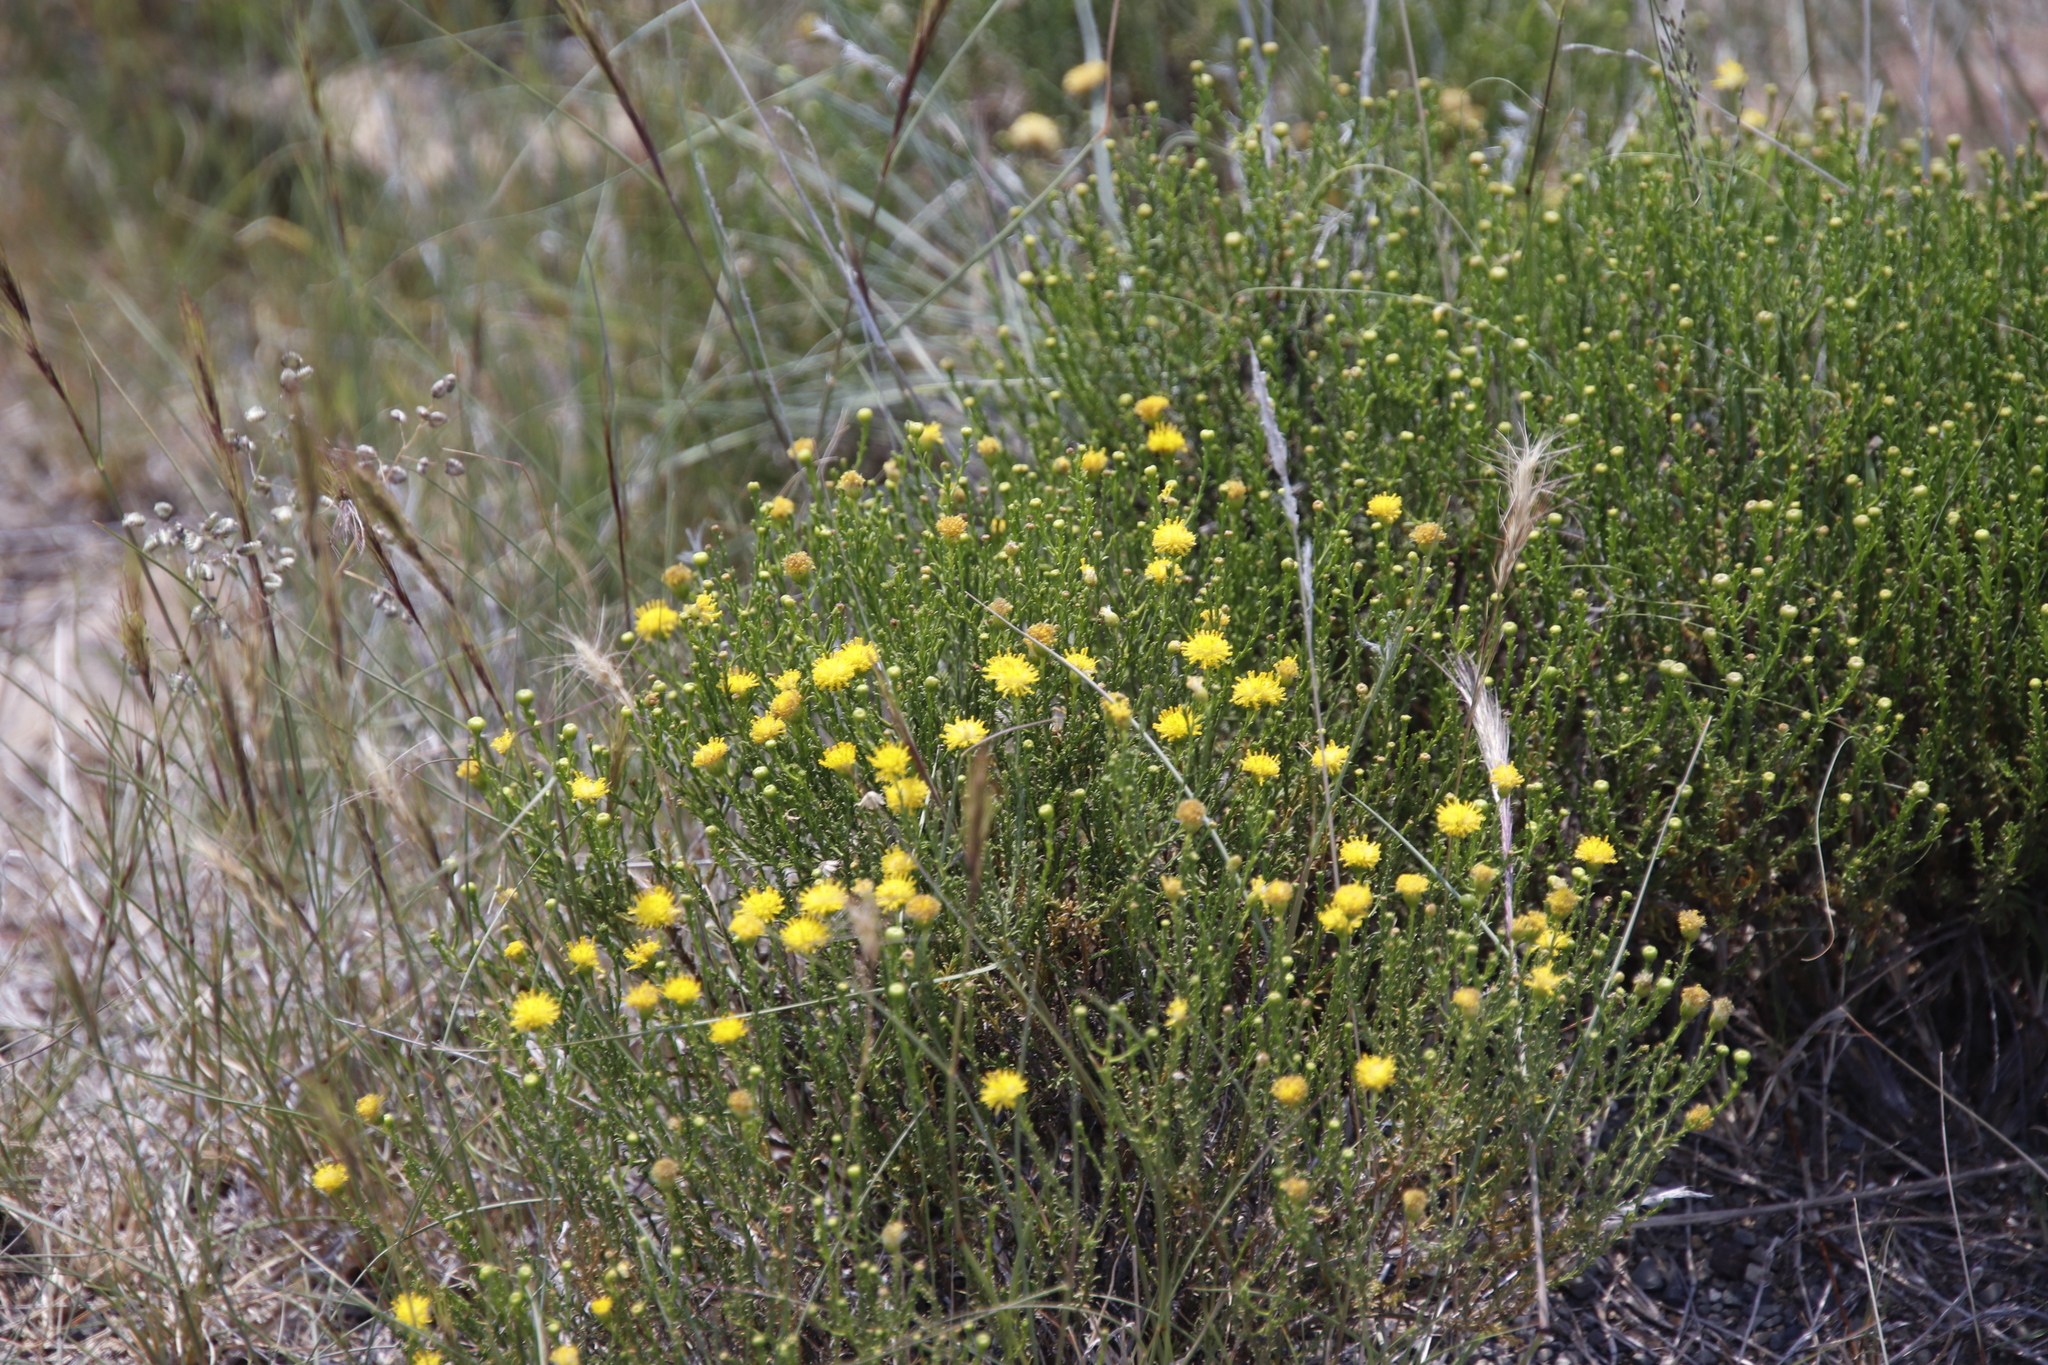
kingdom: Plantae
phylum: Tracheophyta
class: Magnoliopsida
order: Asterales
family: Asteraceae
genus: Chrysocoma
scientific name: Chrysocoma ciliata
